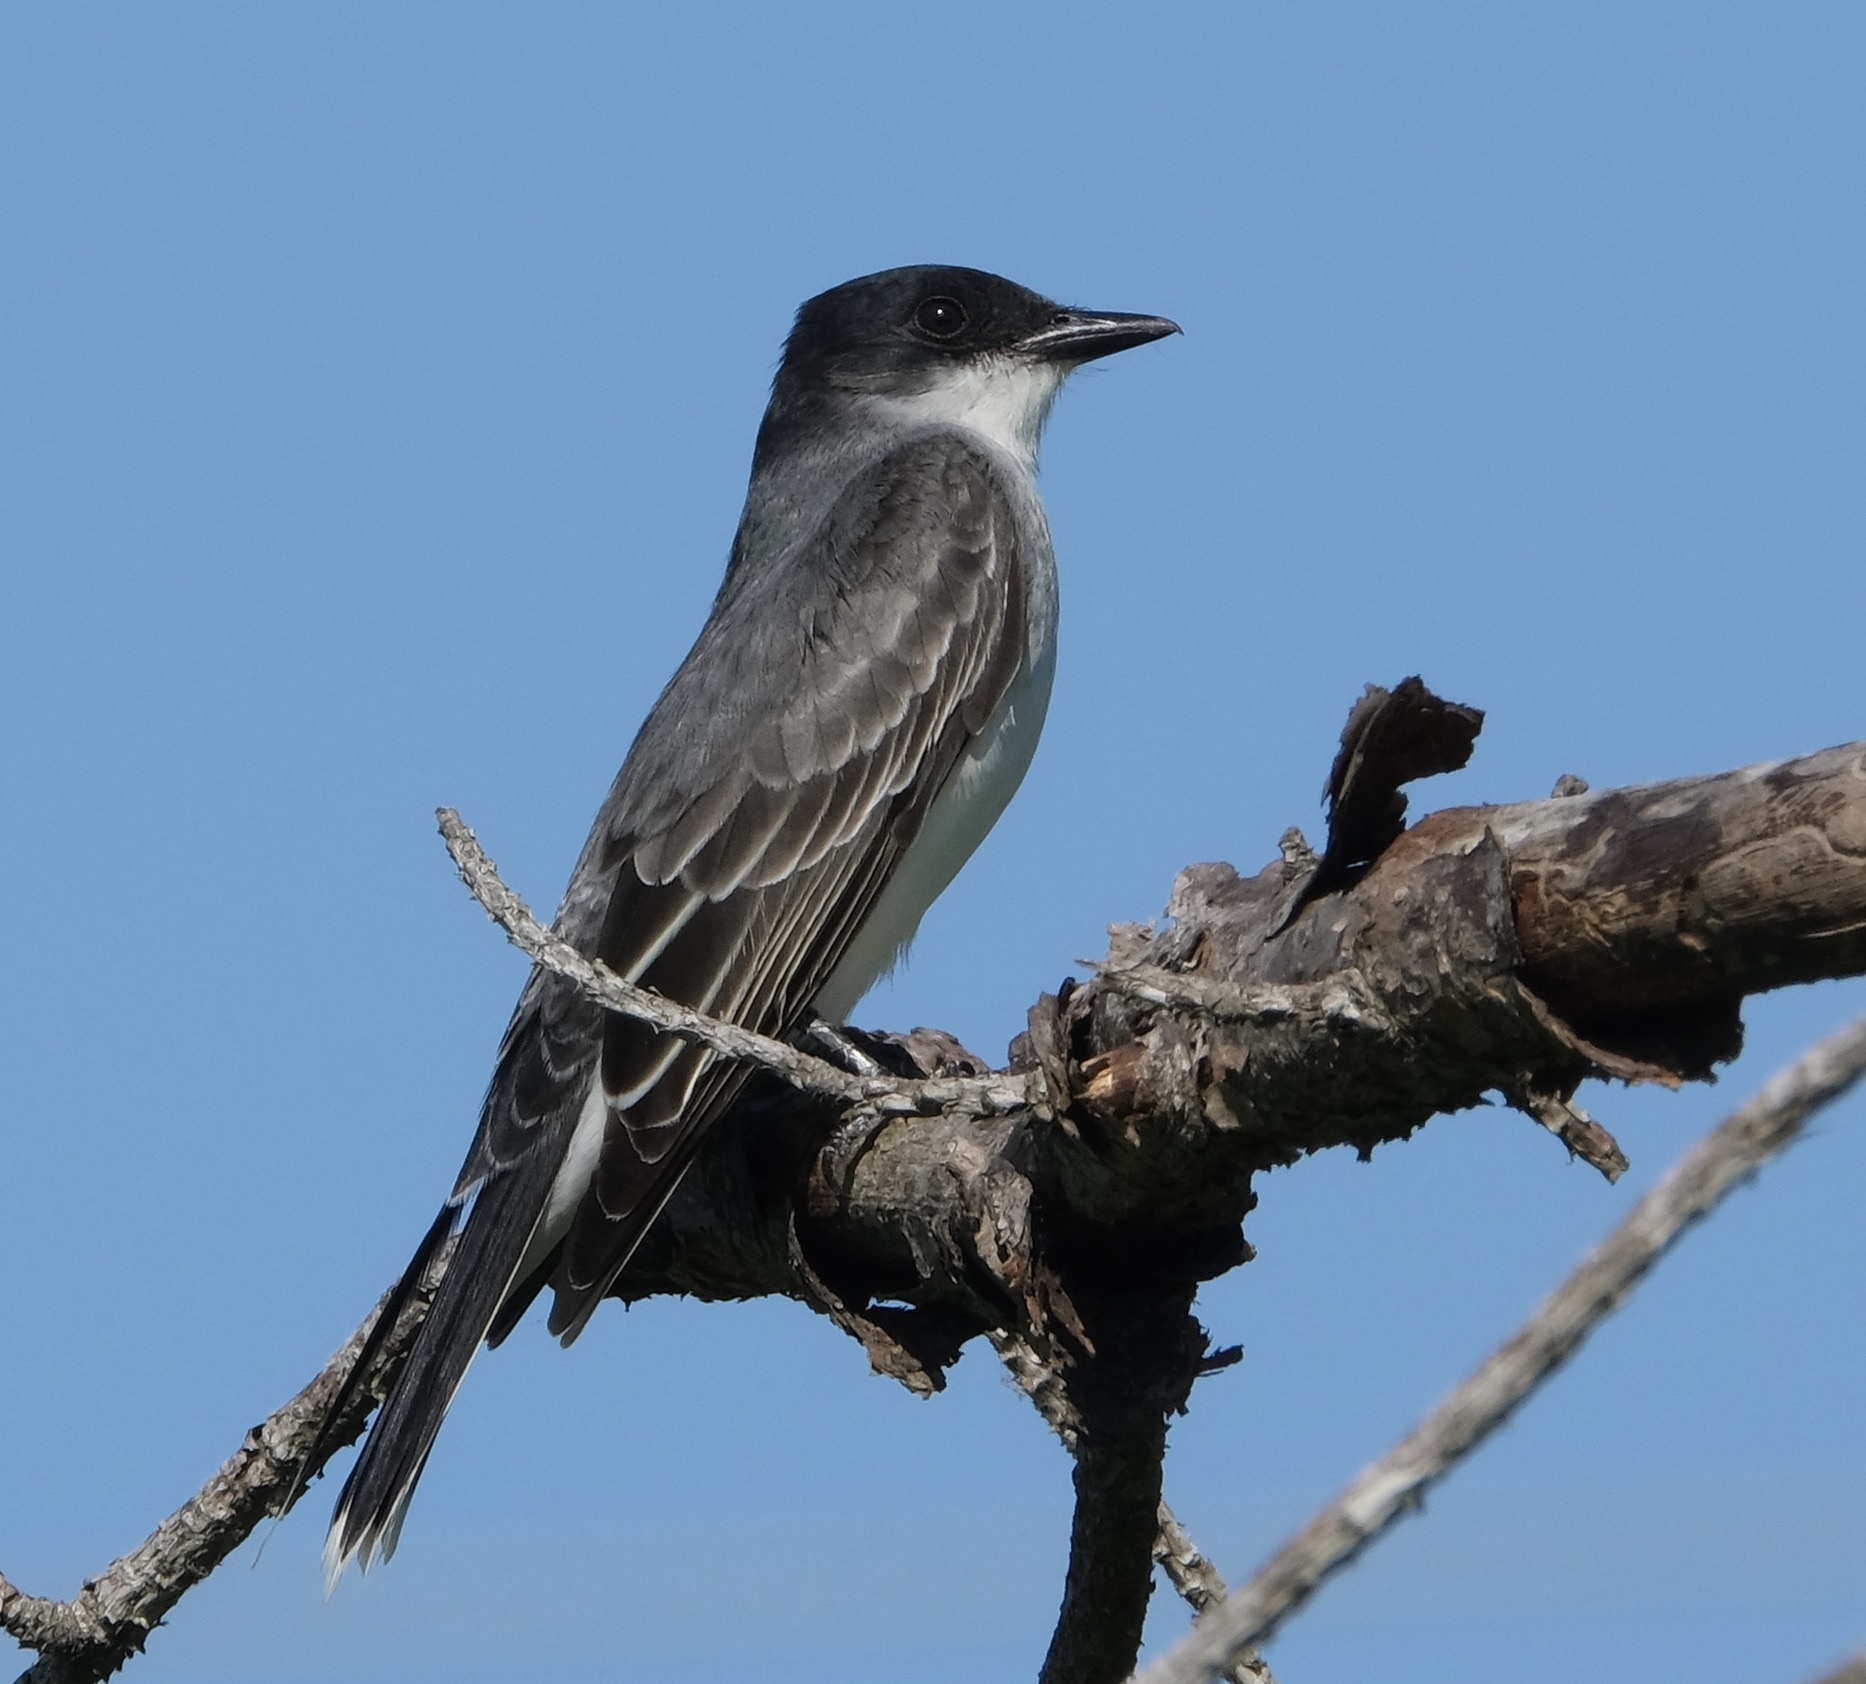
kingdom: Animalia
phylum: Chordata
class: Aves
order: Passeriformes
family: Tyrannidae
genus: Tyrannus
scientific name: Tyrannus tyrannus
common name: Eastern kingbird
